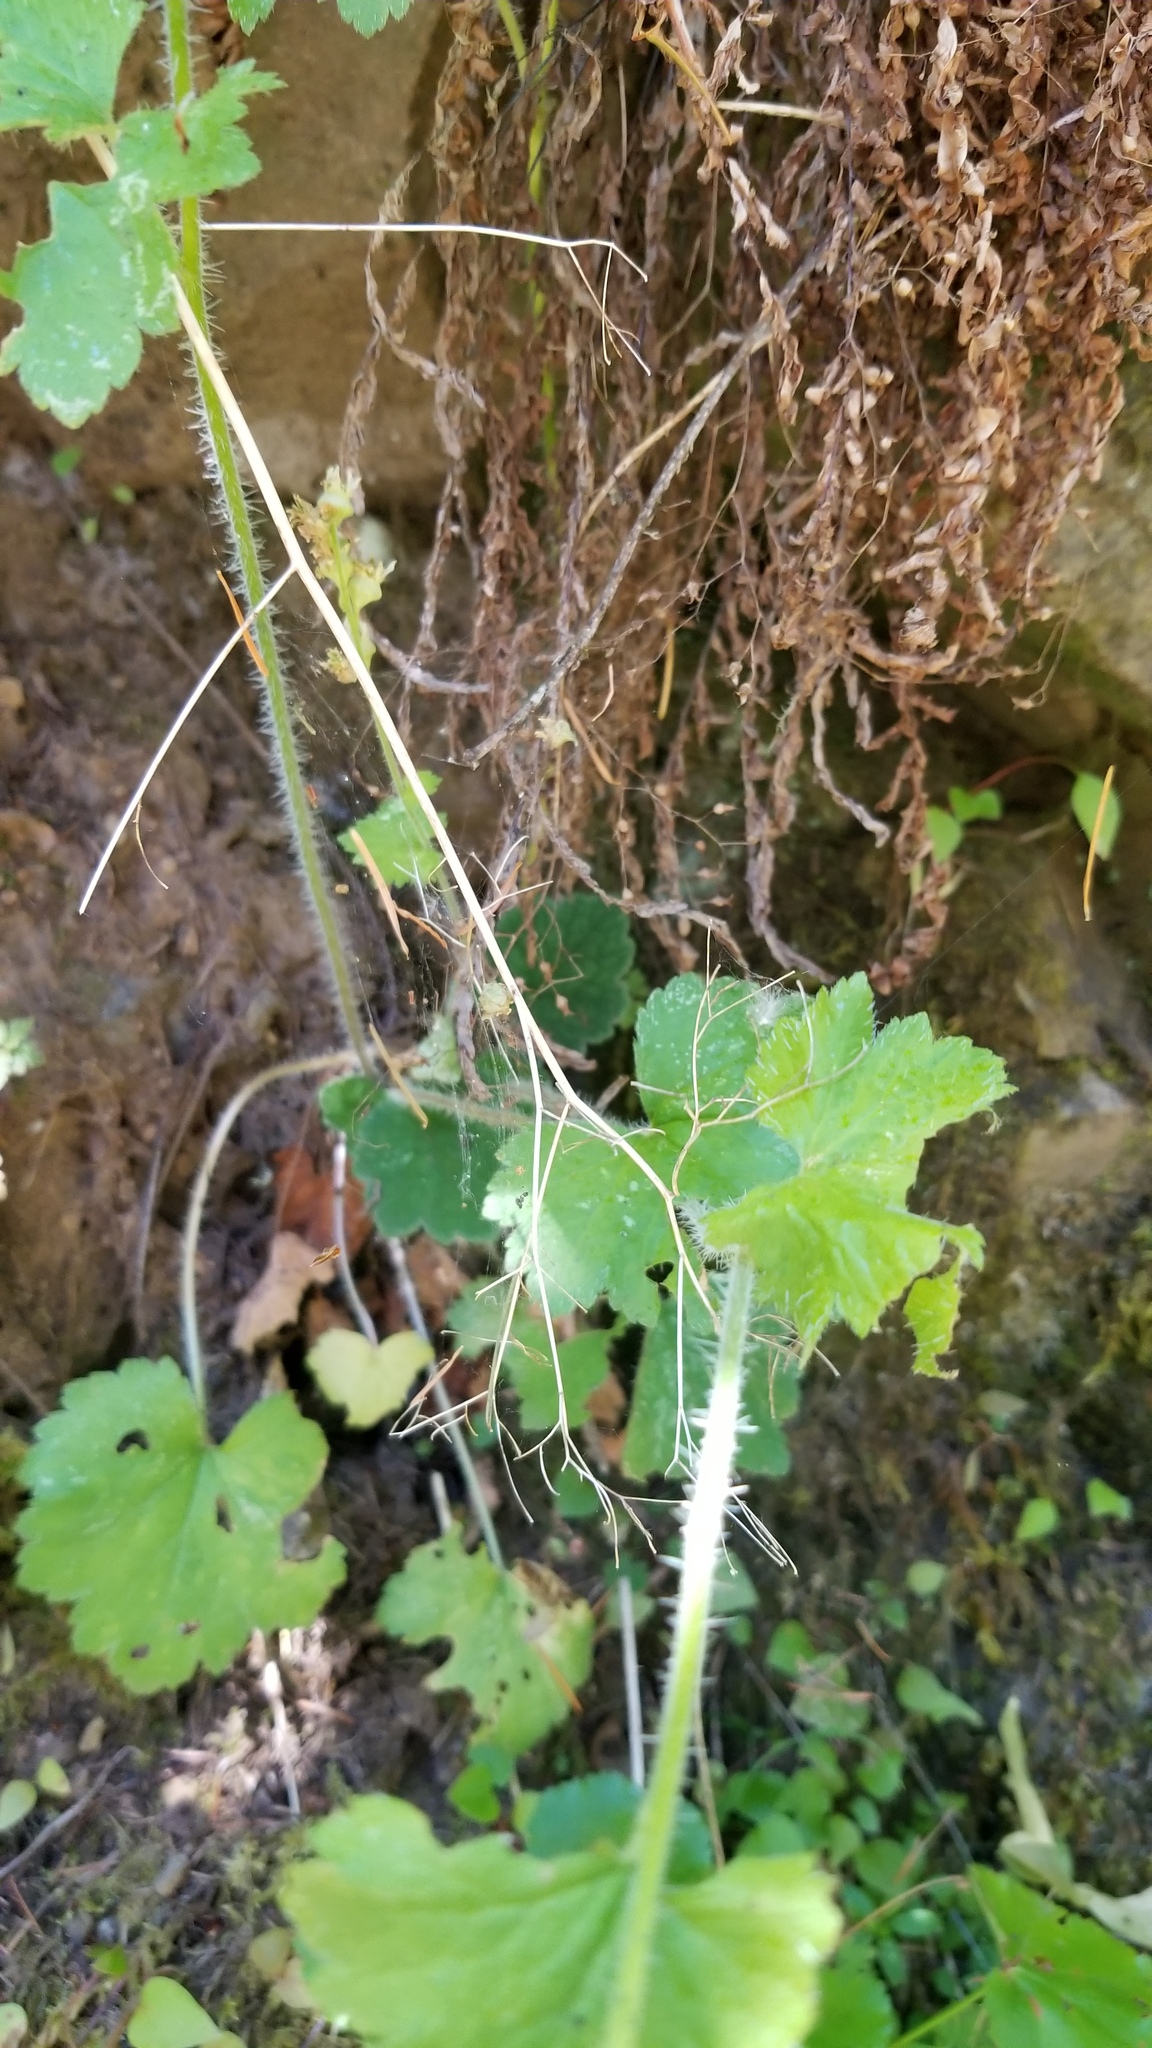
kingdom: Plantae
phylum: Tracheophyta
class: Magnoliopsida
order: Saxifragales
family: Saxifragaceae
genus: Tellima
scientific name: Tellima grandiflora
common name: Fringecups
